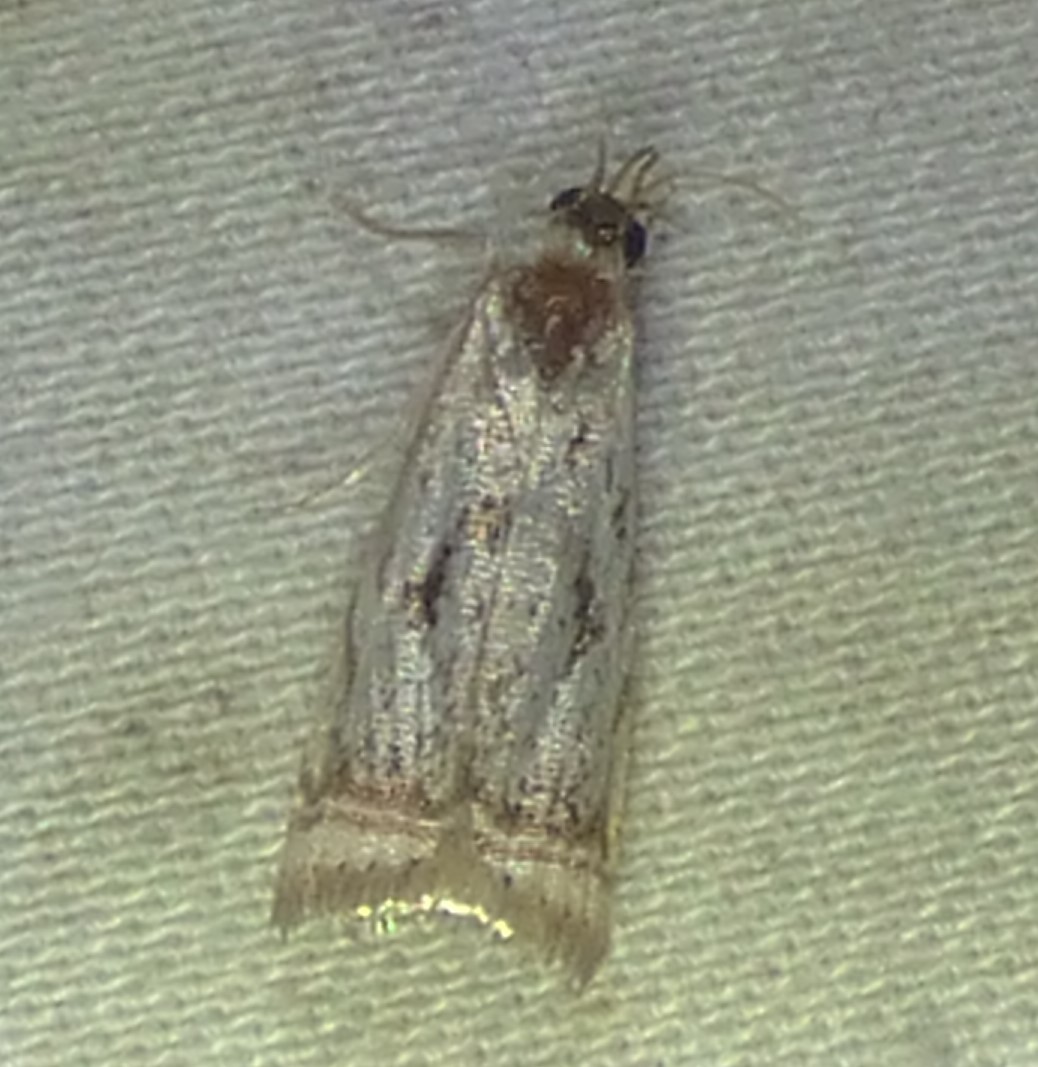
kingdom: Animalia
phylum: Arthropoda
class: Insecta
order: Lepidoptera
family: Crambidae
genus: Microcrambus
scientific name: Microcrambus elegans
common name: Elegant grass-veneer
